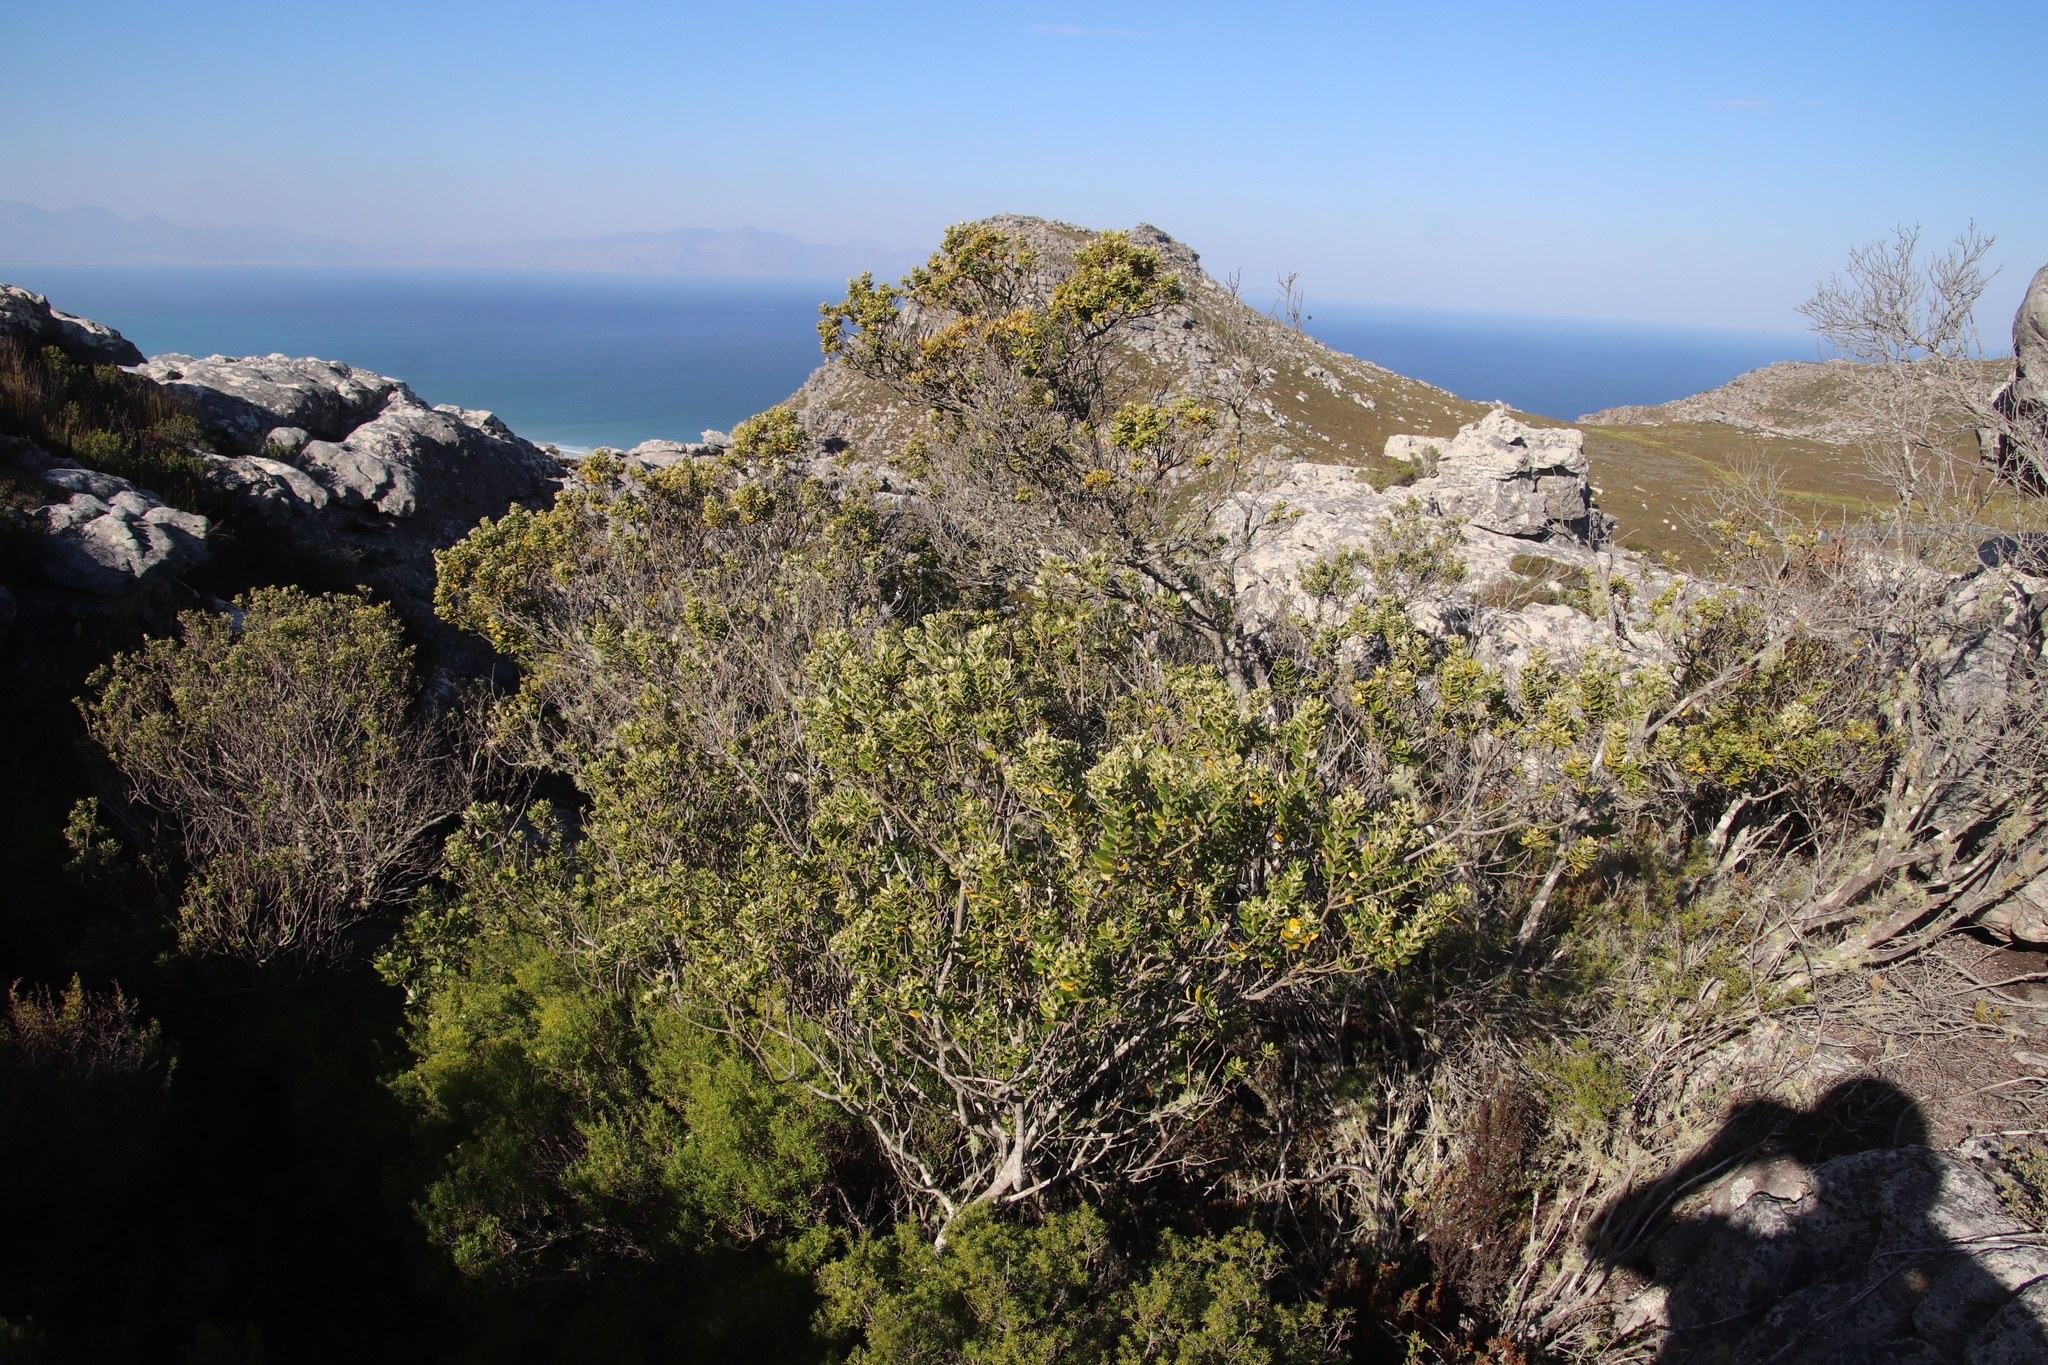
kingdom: Plantae
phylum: Tracheophyta
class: Magnoliopsida
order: Rosales
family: Rhamnaceae
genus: Phylica
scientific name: Phylica buxifolia
